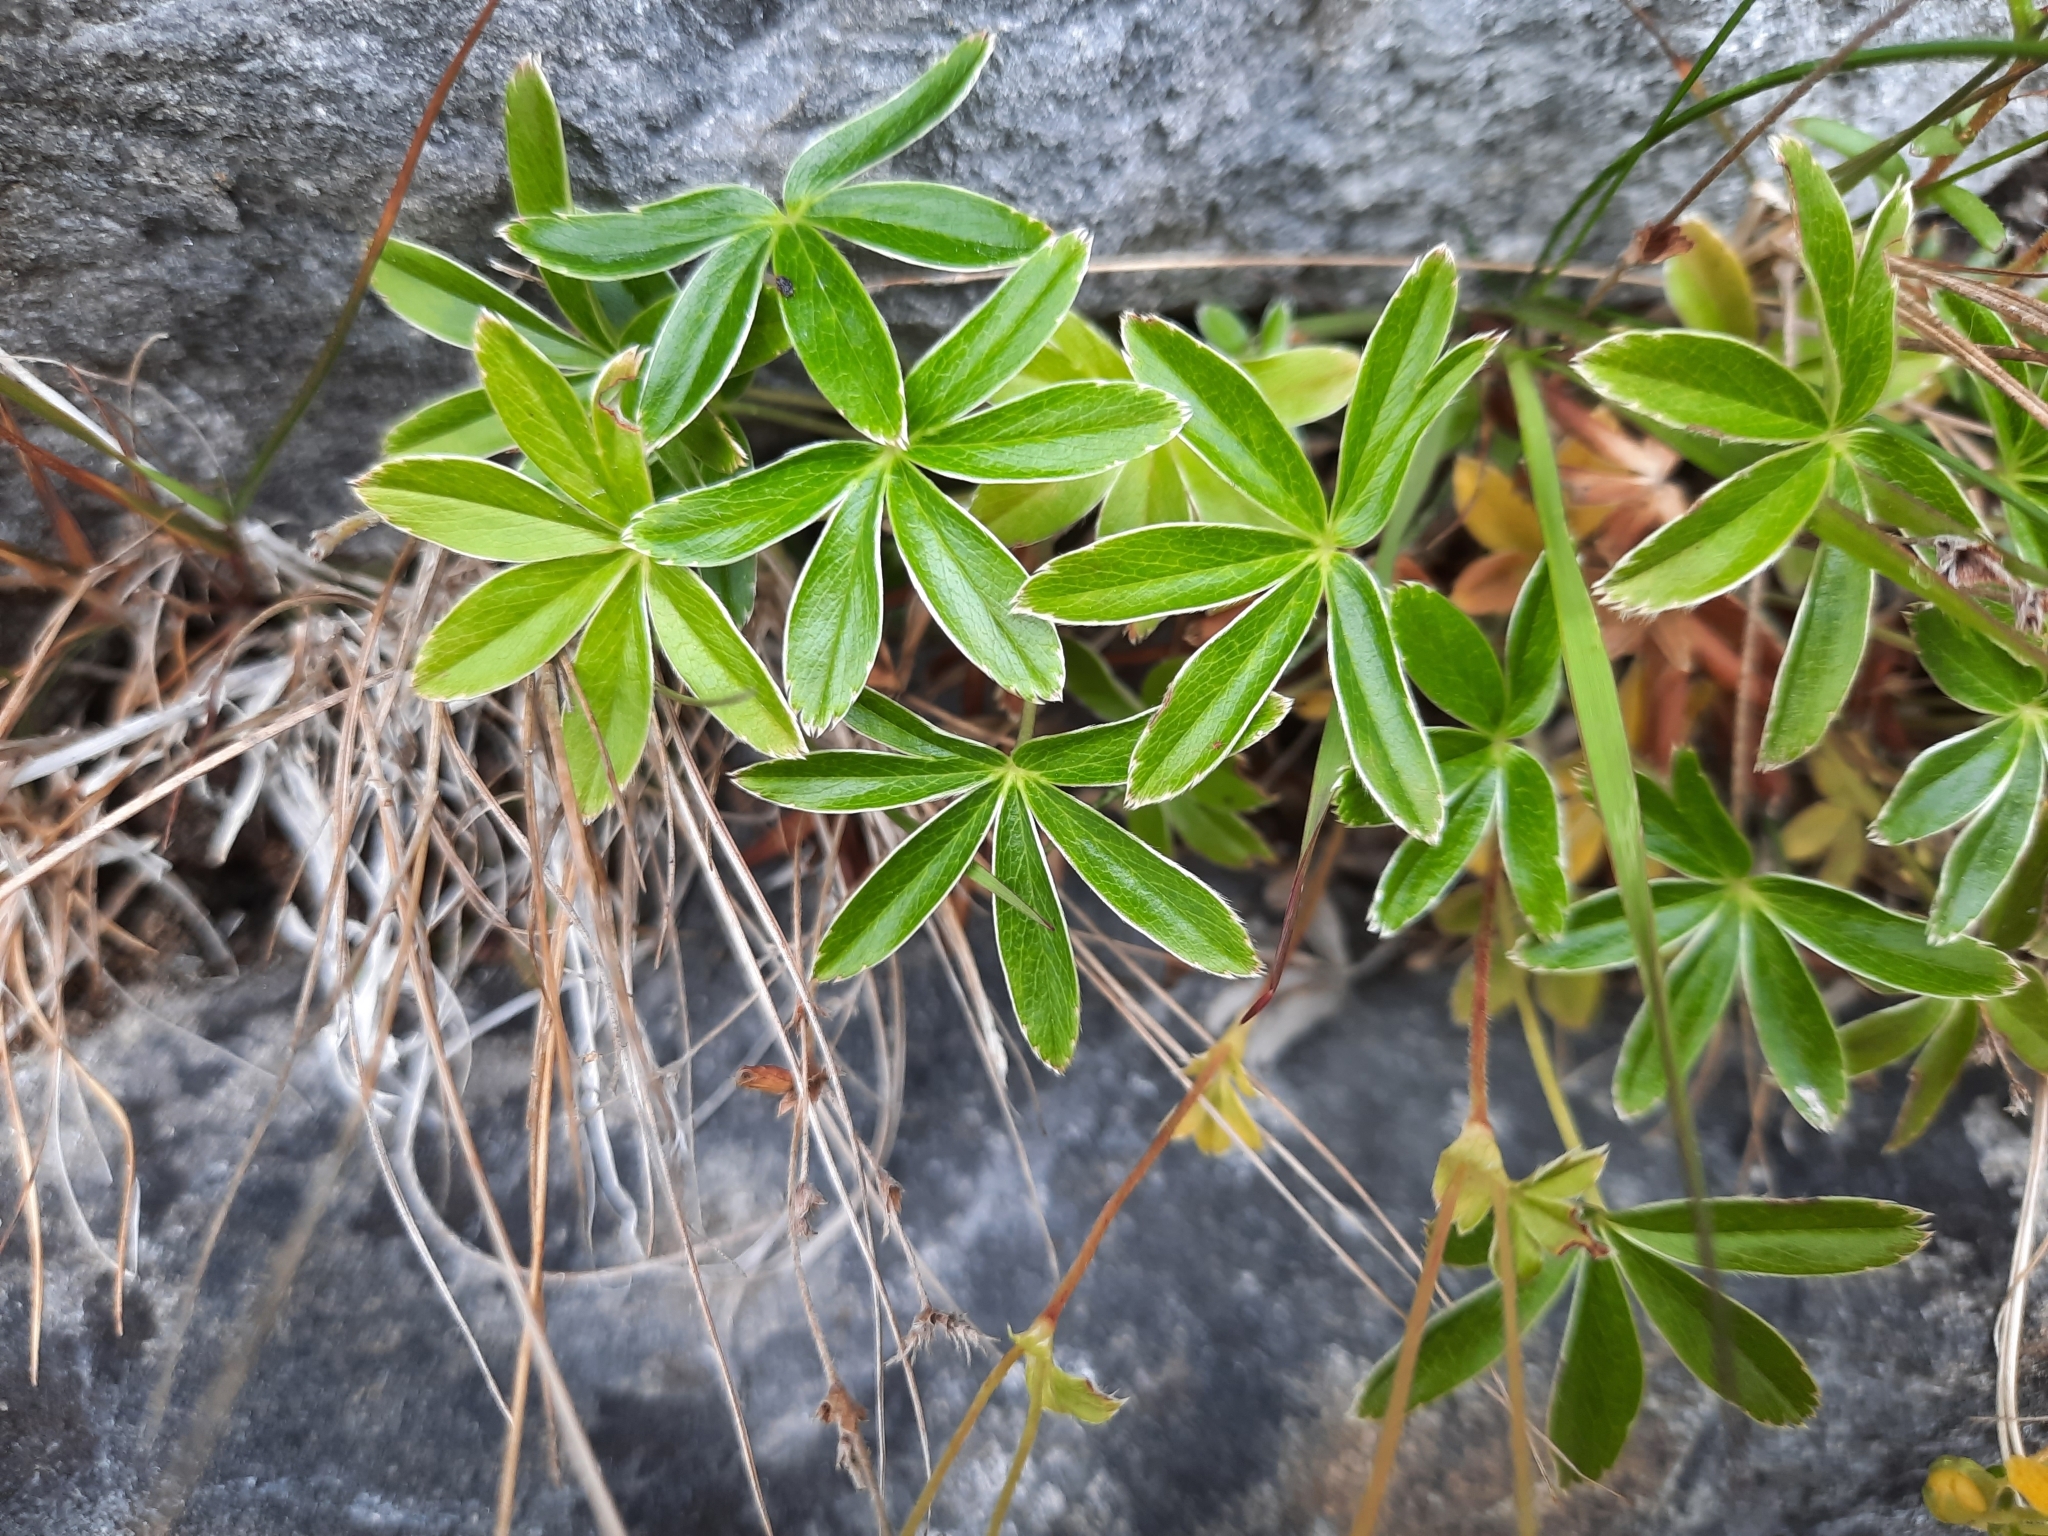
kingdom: Plantae
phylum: Tracheophyta
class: Magnoliopsida
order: Rosales
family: Rosaceae
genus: Alchemilla
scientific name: Alchemilla alpina
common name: Alpine lady's-mantle
